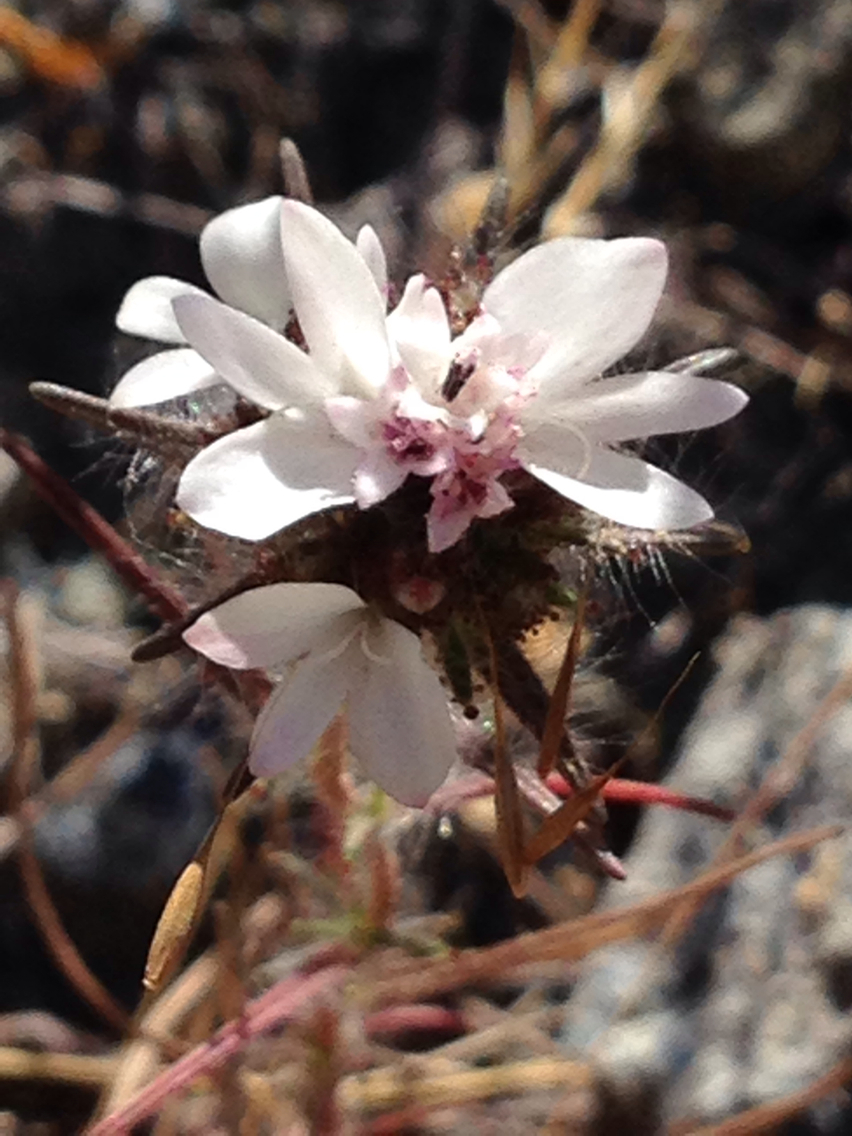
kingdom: Plantae
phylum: Tracheophyta
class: Magnoliopsida
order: Asterales
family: Asteraceae
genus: Calycadenia
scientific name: Calycadenia multiglandulosa
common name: Sticky calycadenia
